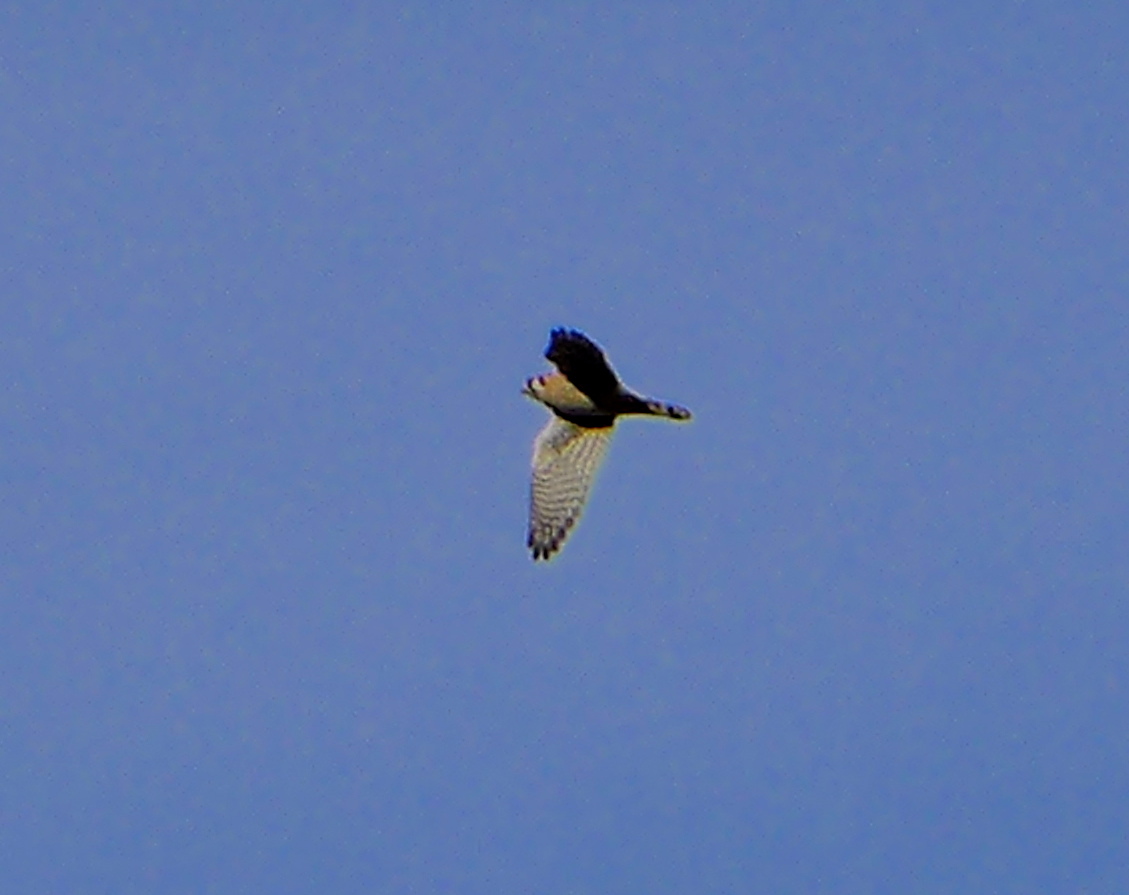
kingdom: Animalia
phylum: Chordata
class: Aves
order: Falconiformes
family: Falconidae
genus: Falco
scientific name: Falco sparverius
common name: American kestrel
